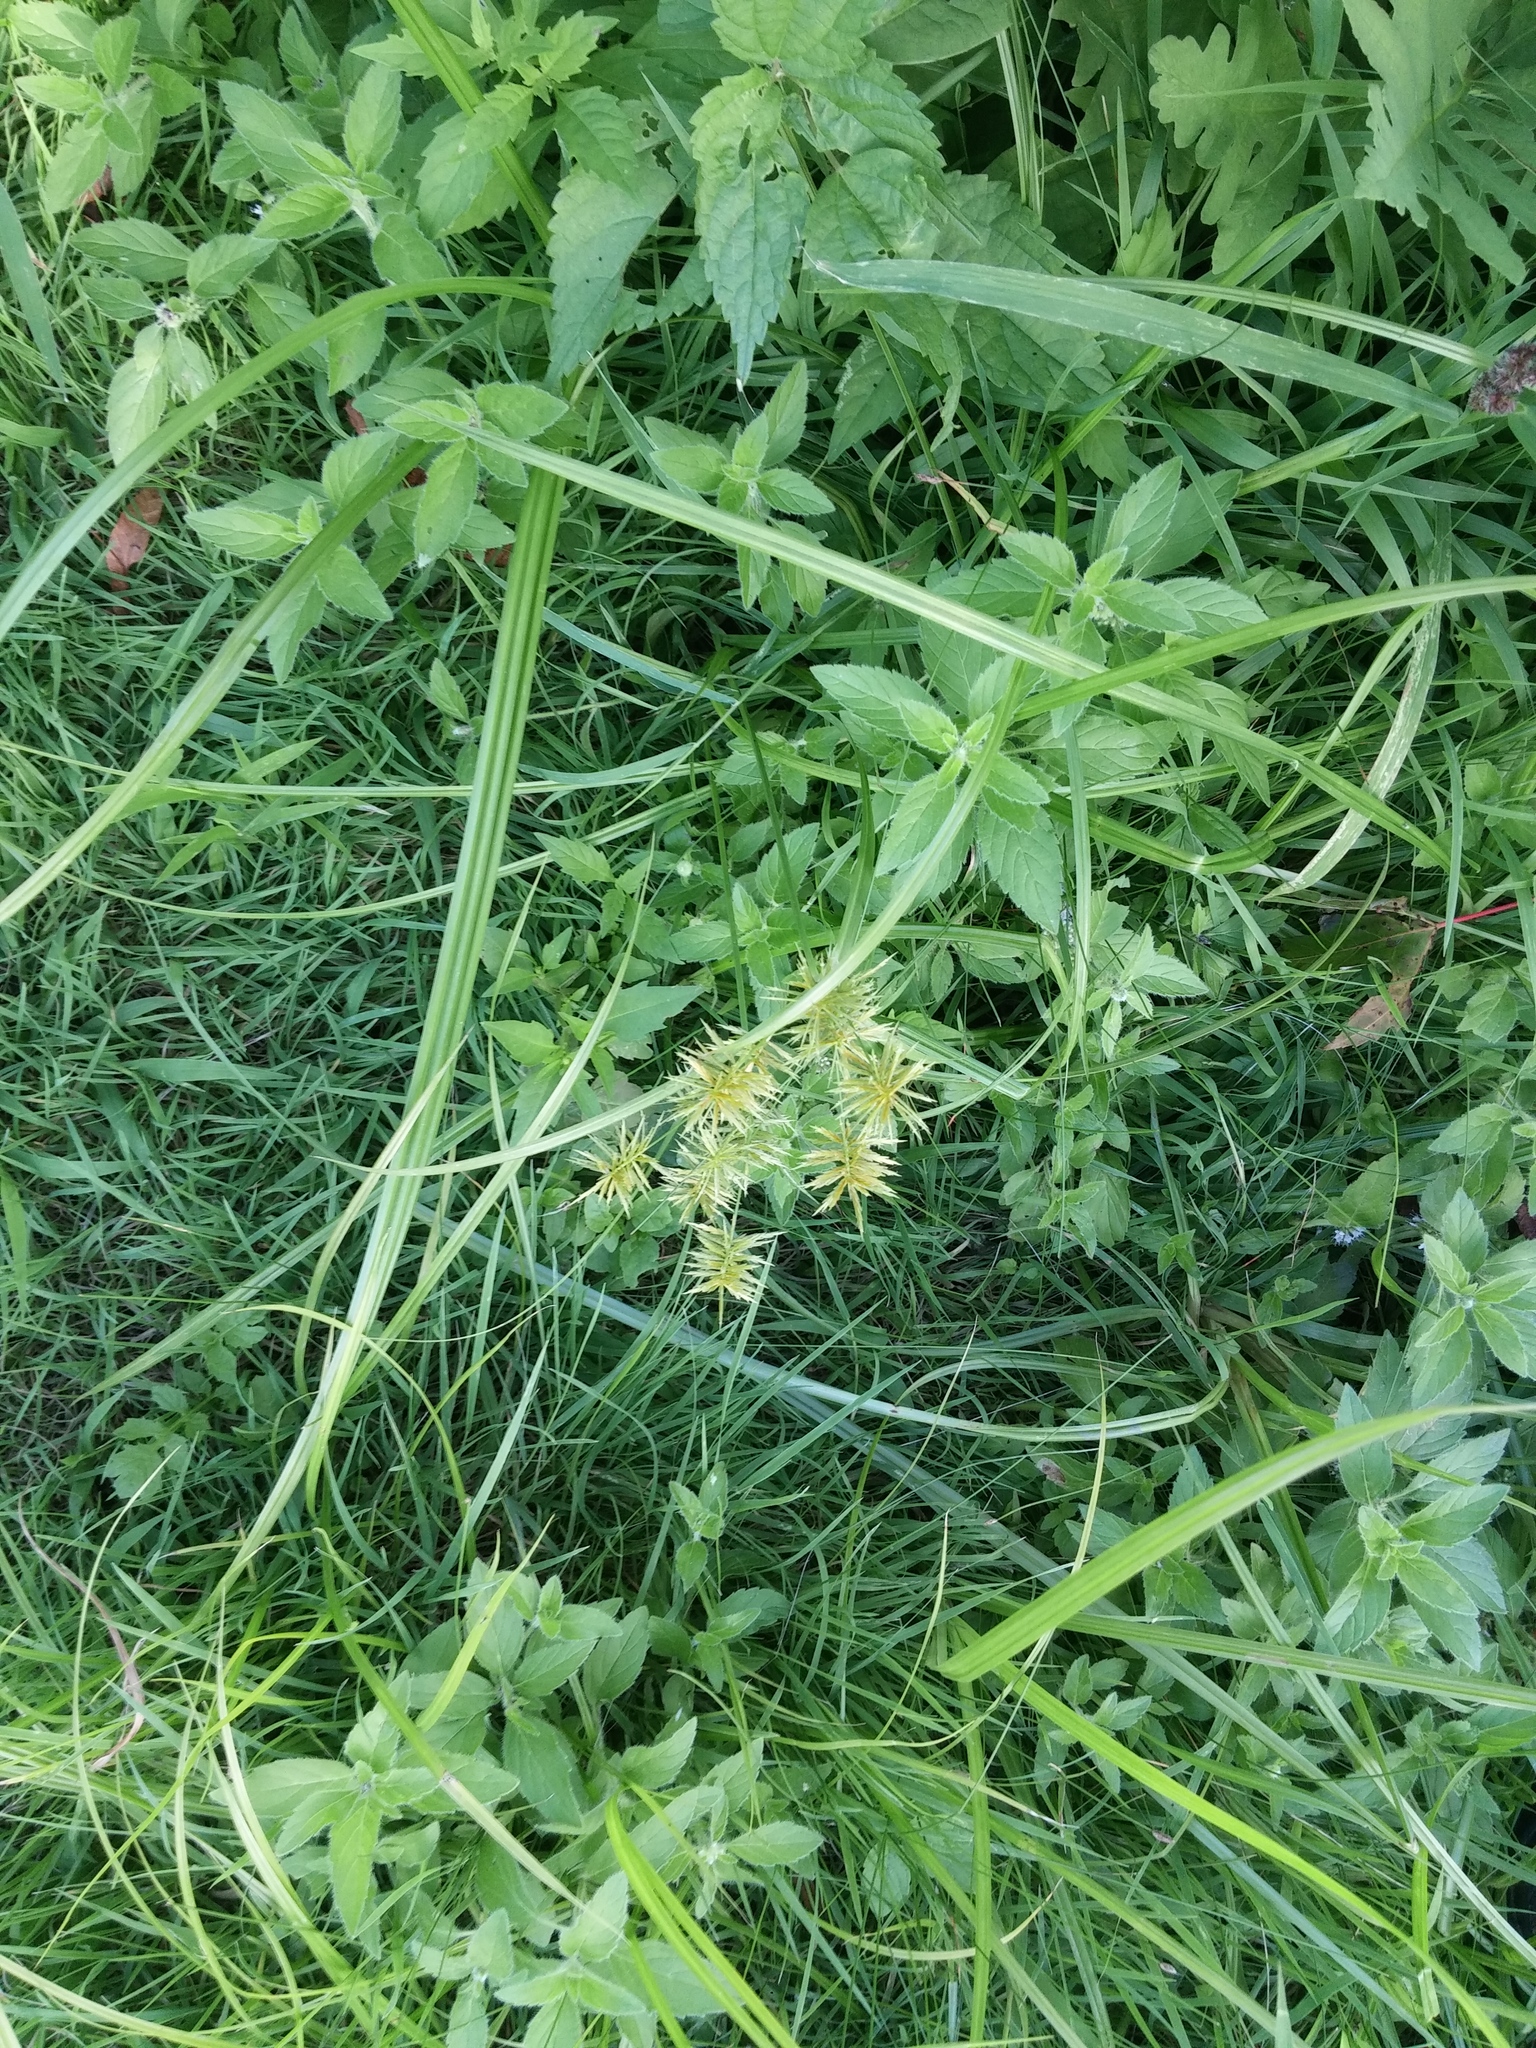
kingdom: Plantae
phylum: Tracheophyta
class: Liliopsida
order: Poales
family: Cyperaceae
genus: Cyperus
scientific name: Cyperus strigosus
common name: False nutsedge
